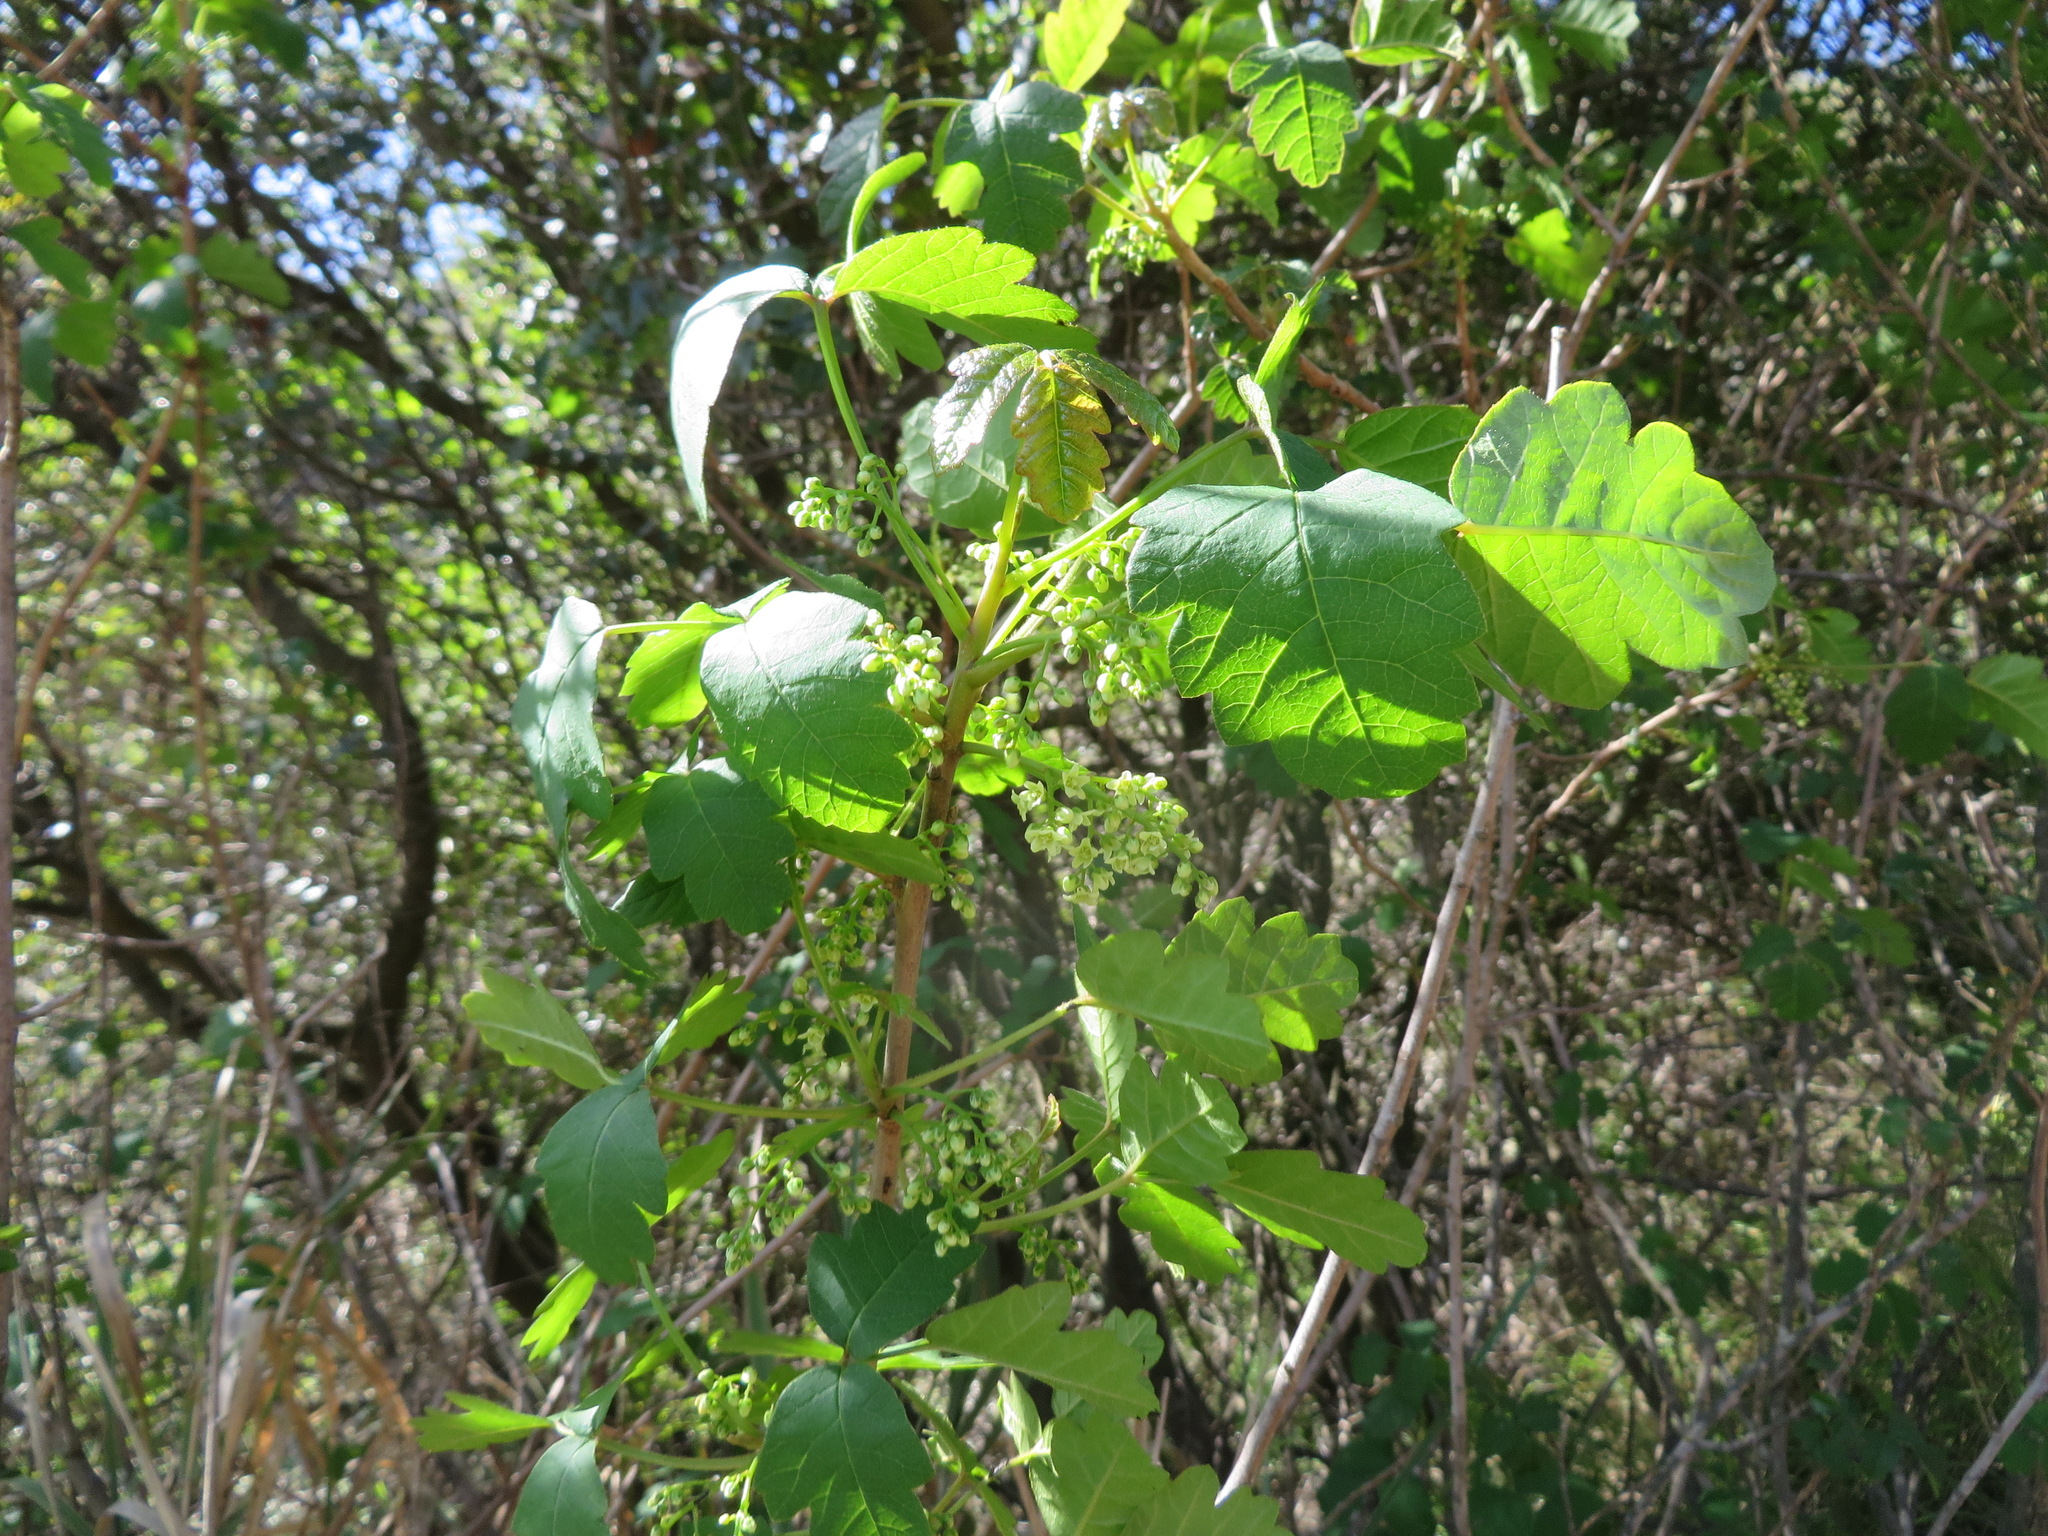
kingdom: Plantae
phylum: Tracheophyta
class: Magnoliopsida
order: Sapindales
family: Anacardiaceae
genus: Toxicodendron
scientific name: Toxicodendron diversilobum
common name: Pacific poison-oak
